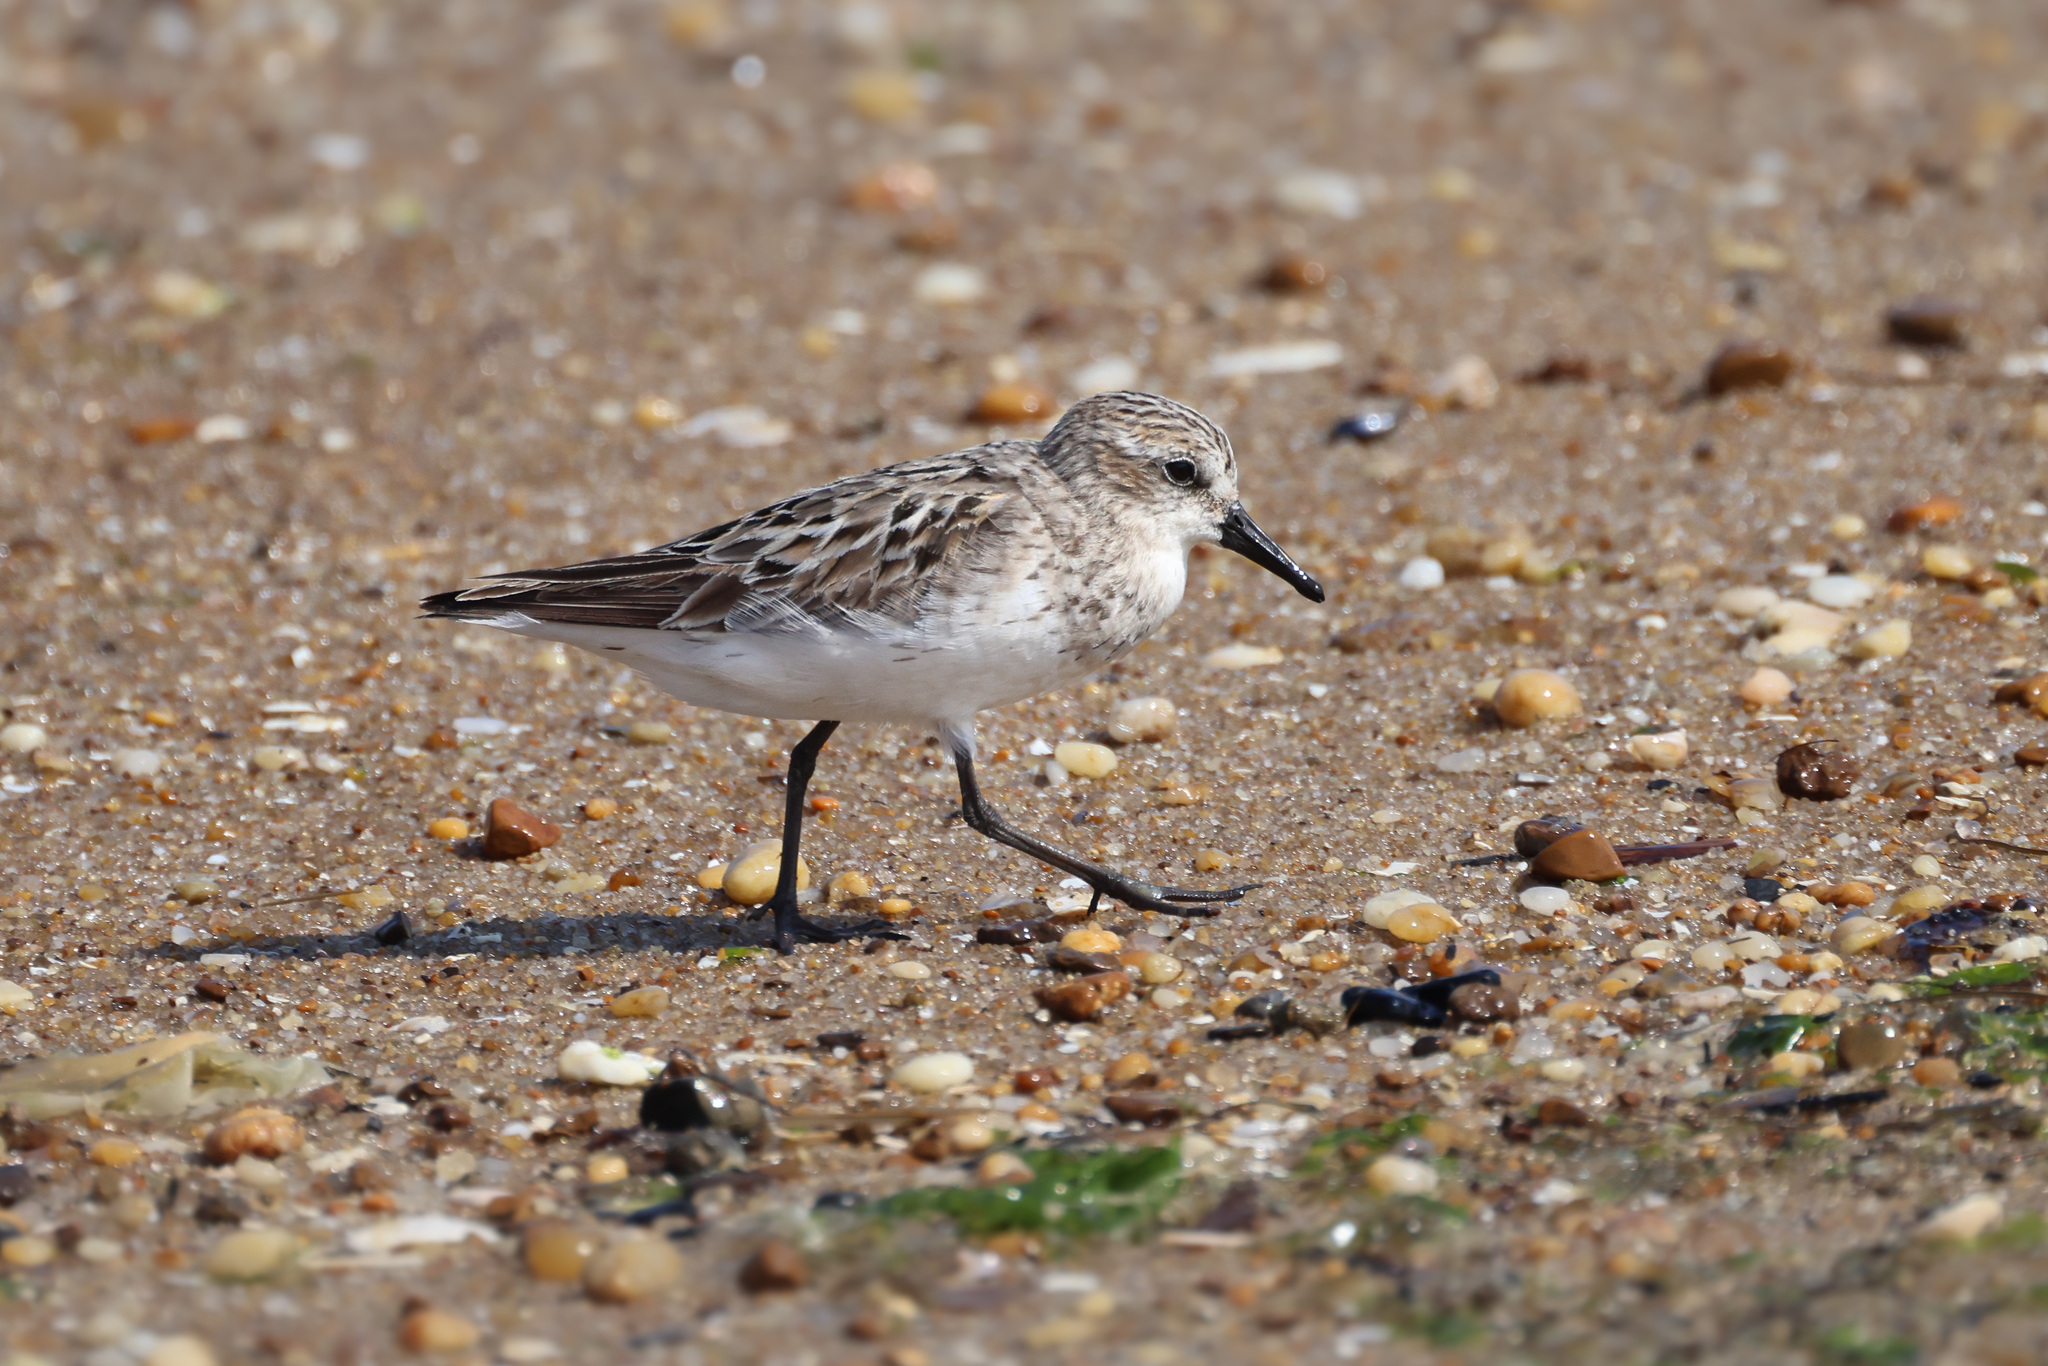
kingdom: Animalia
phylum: Chordata
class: Aves
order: Charadriiformes
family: Scolopacidae
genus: Calidris
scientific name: Calidris pusilla
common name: Semipalmated sandpiper
